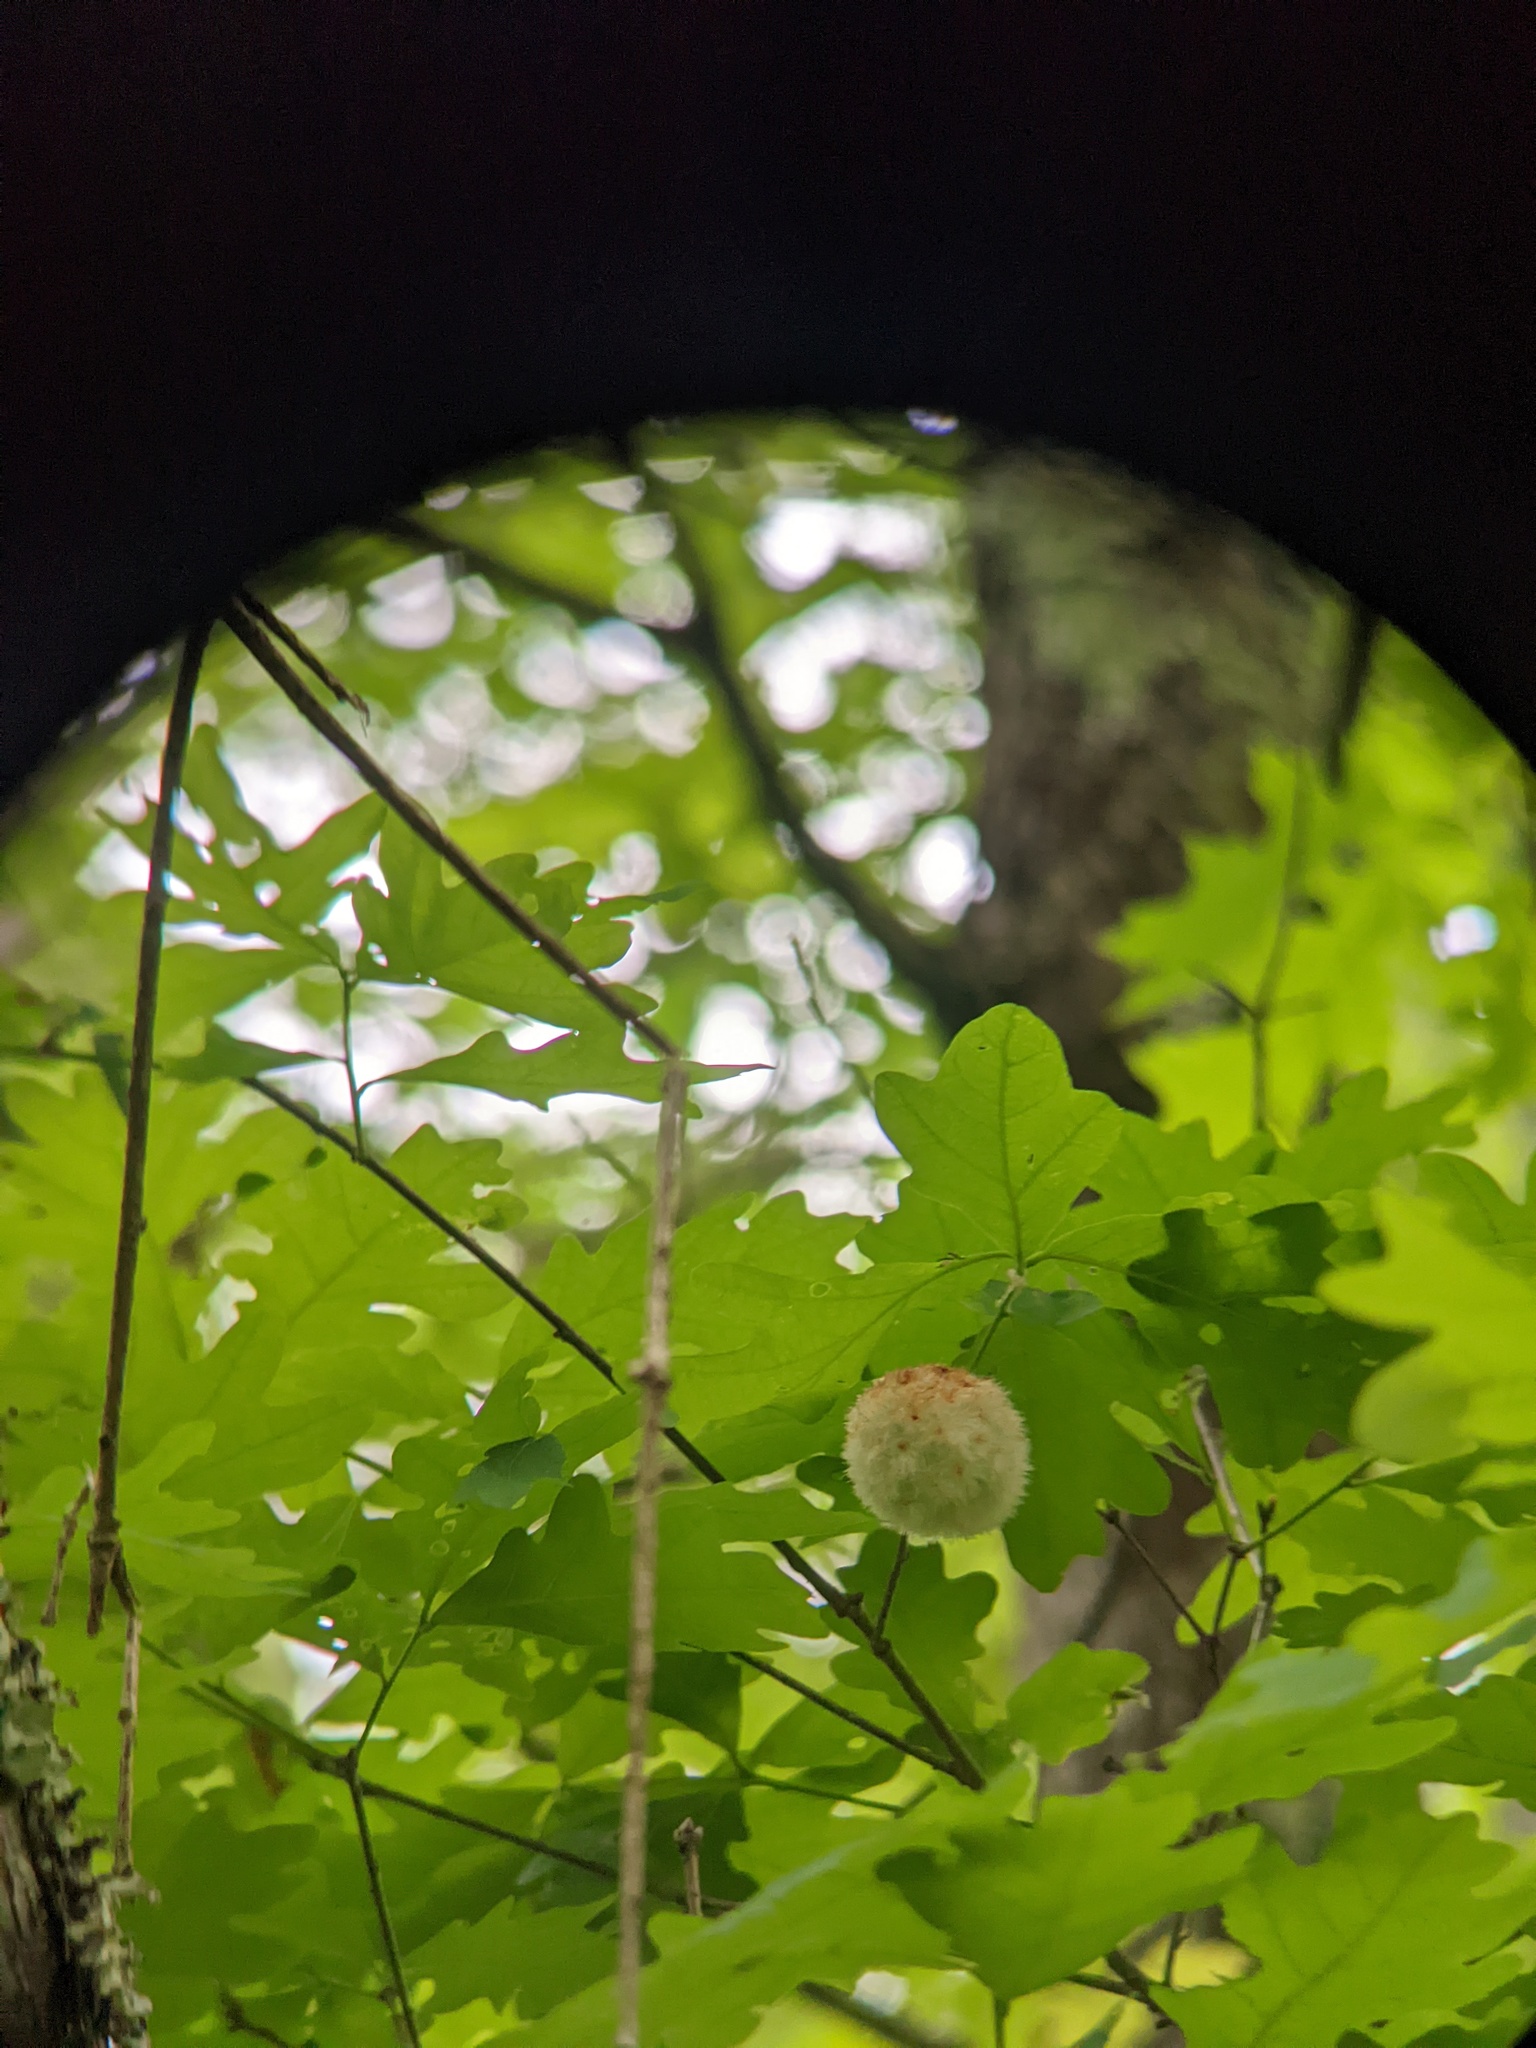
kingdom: Animalia
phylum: Arthropoda
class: Insecta
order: Hymenoptera
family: Cynipidae
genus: Callirhytis
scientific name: Callirhytis
